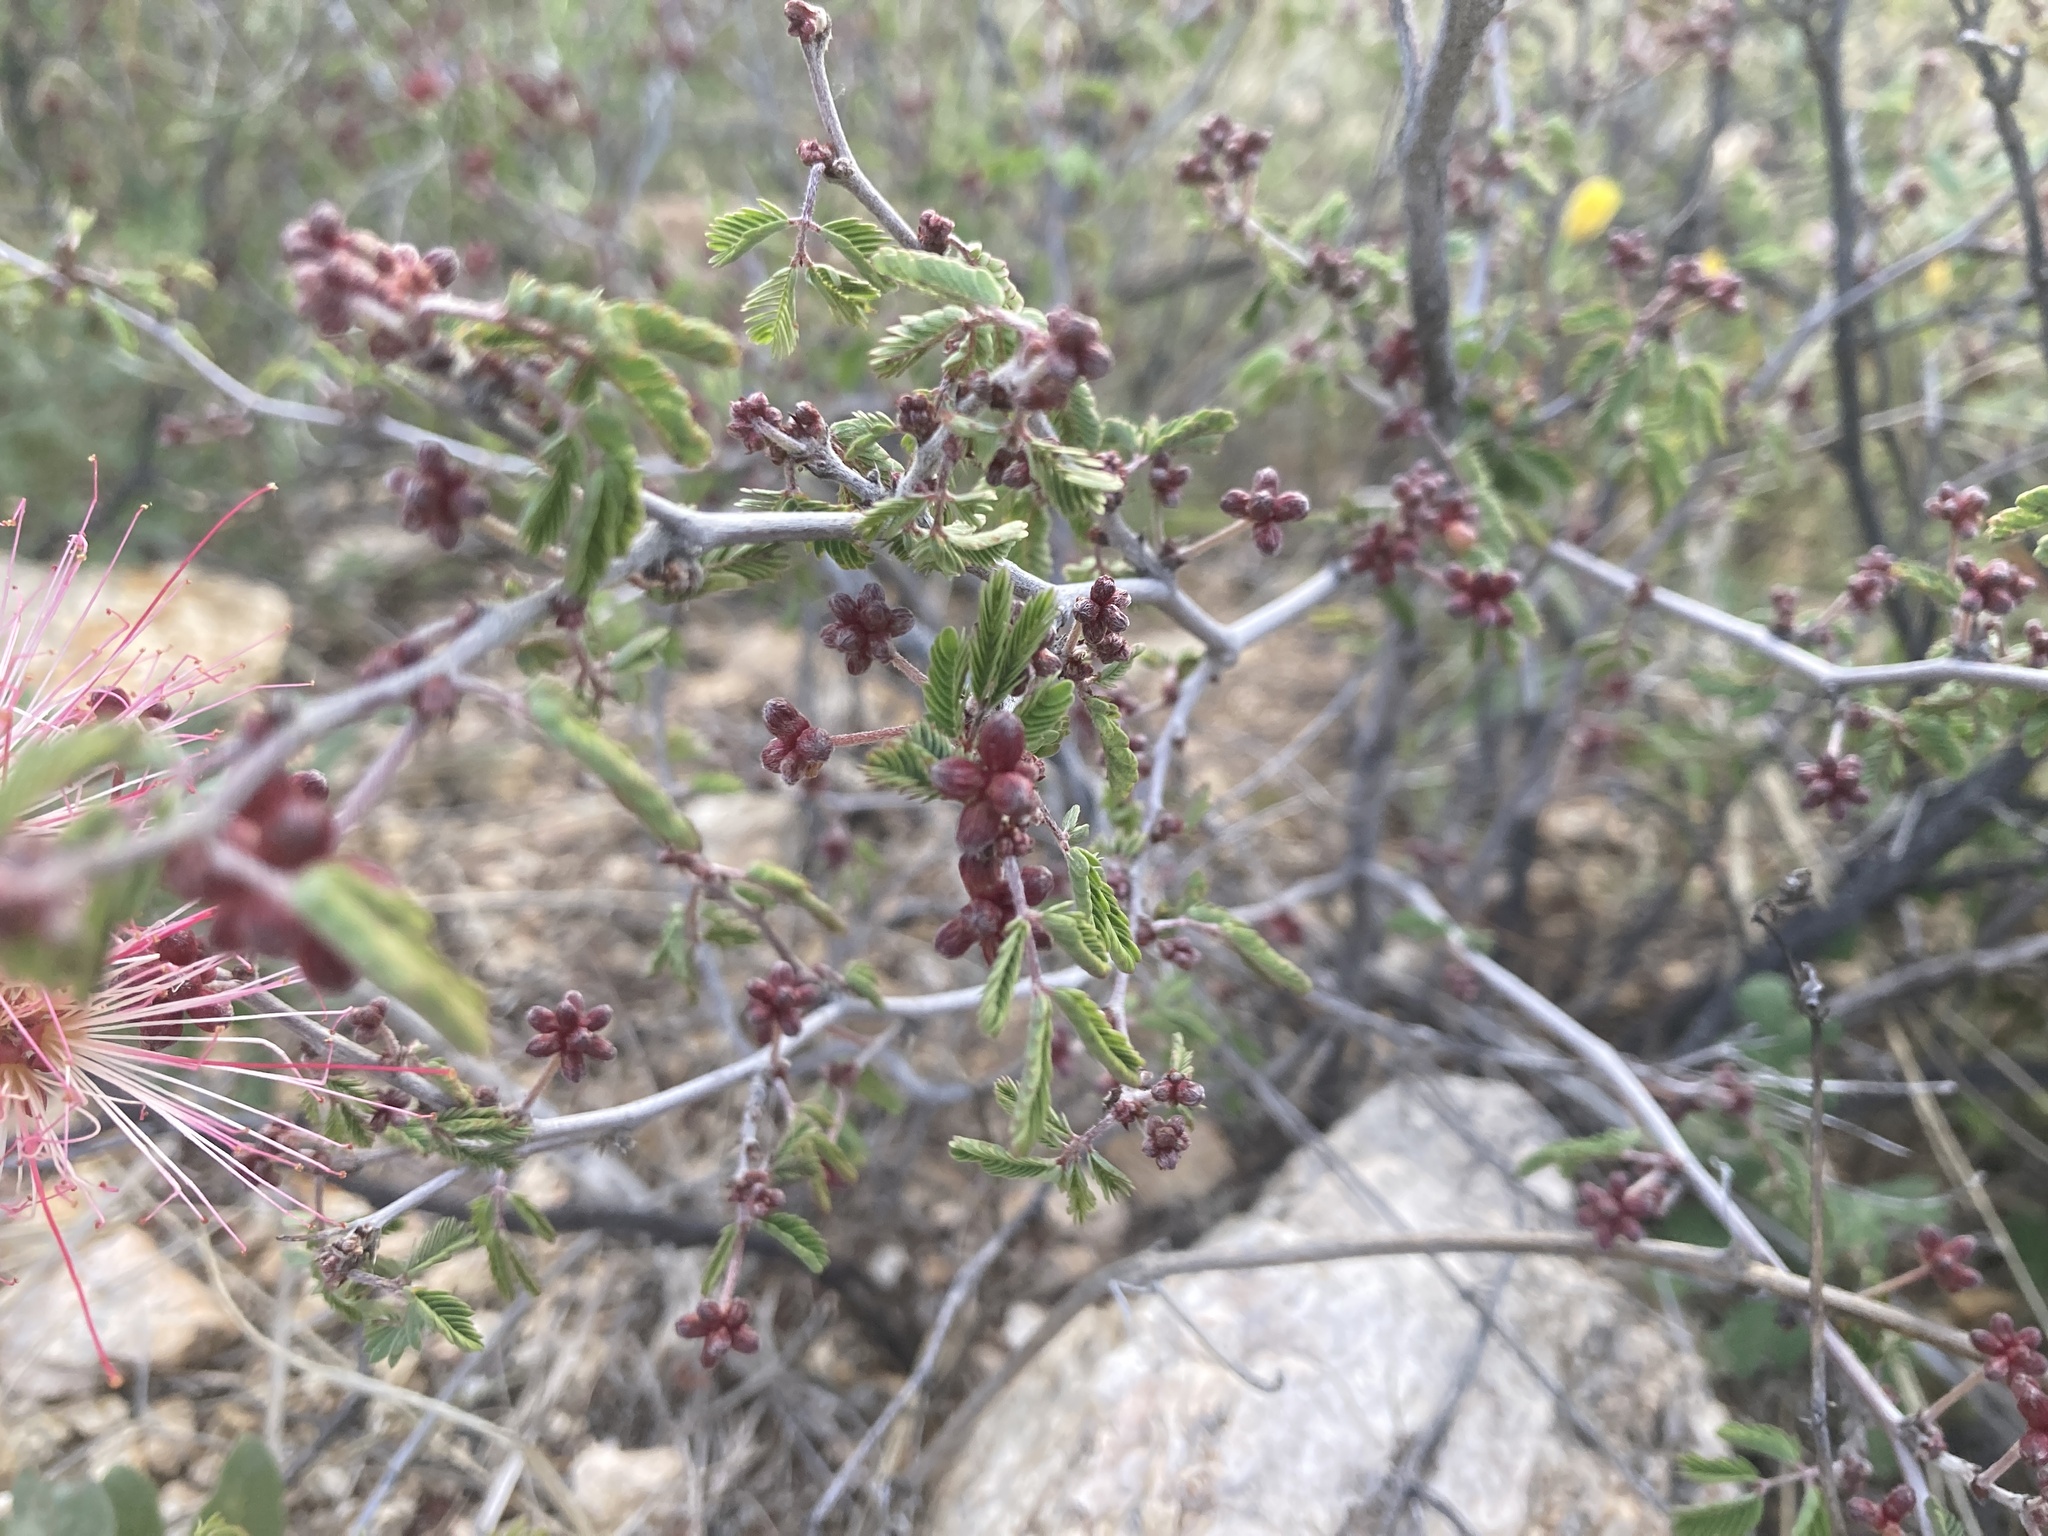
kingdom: Plantae
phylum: Tracheophyta
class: Magnoliopsida
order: Fabales
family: Fabaceae
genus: Calliandra
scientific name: Calliandra eriophylla
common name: Fairy-duster
